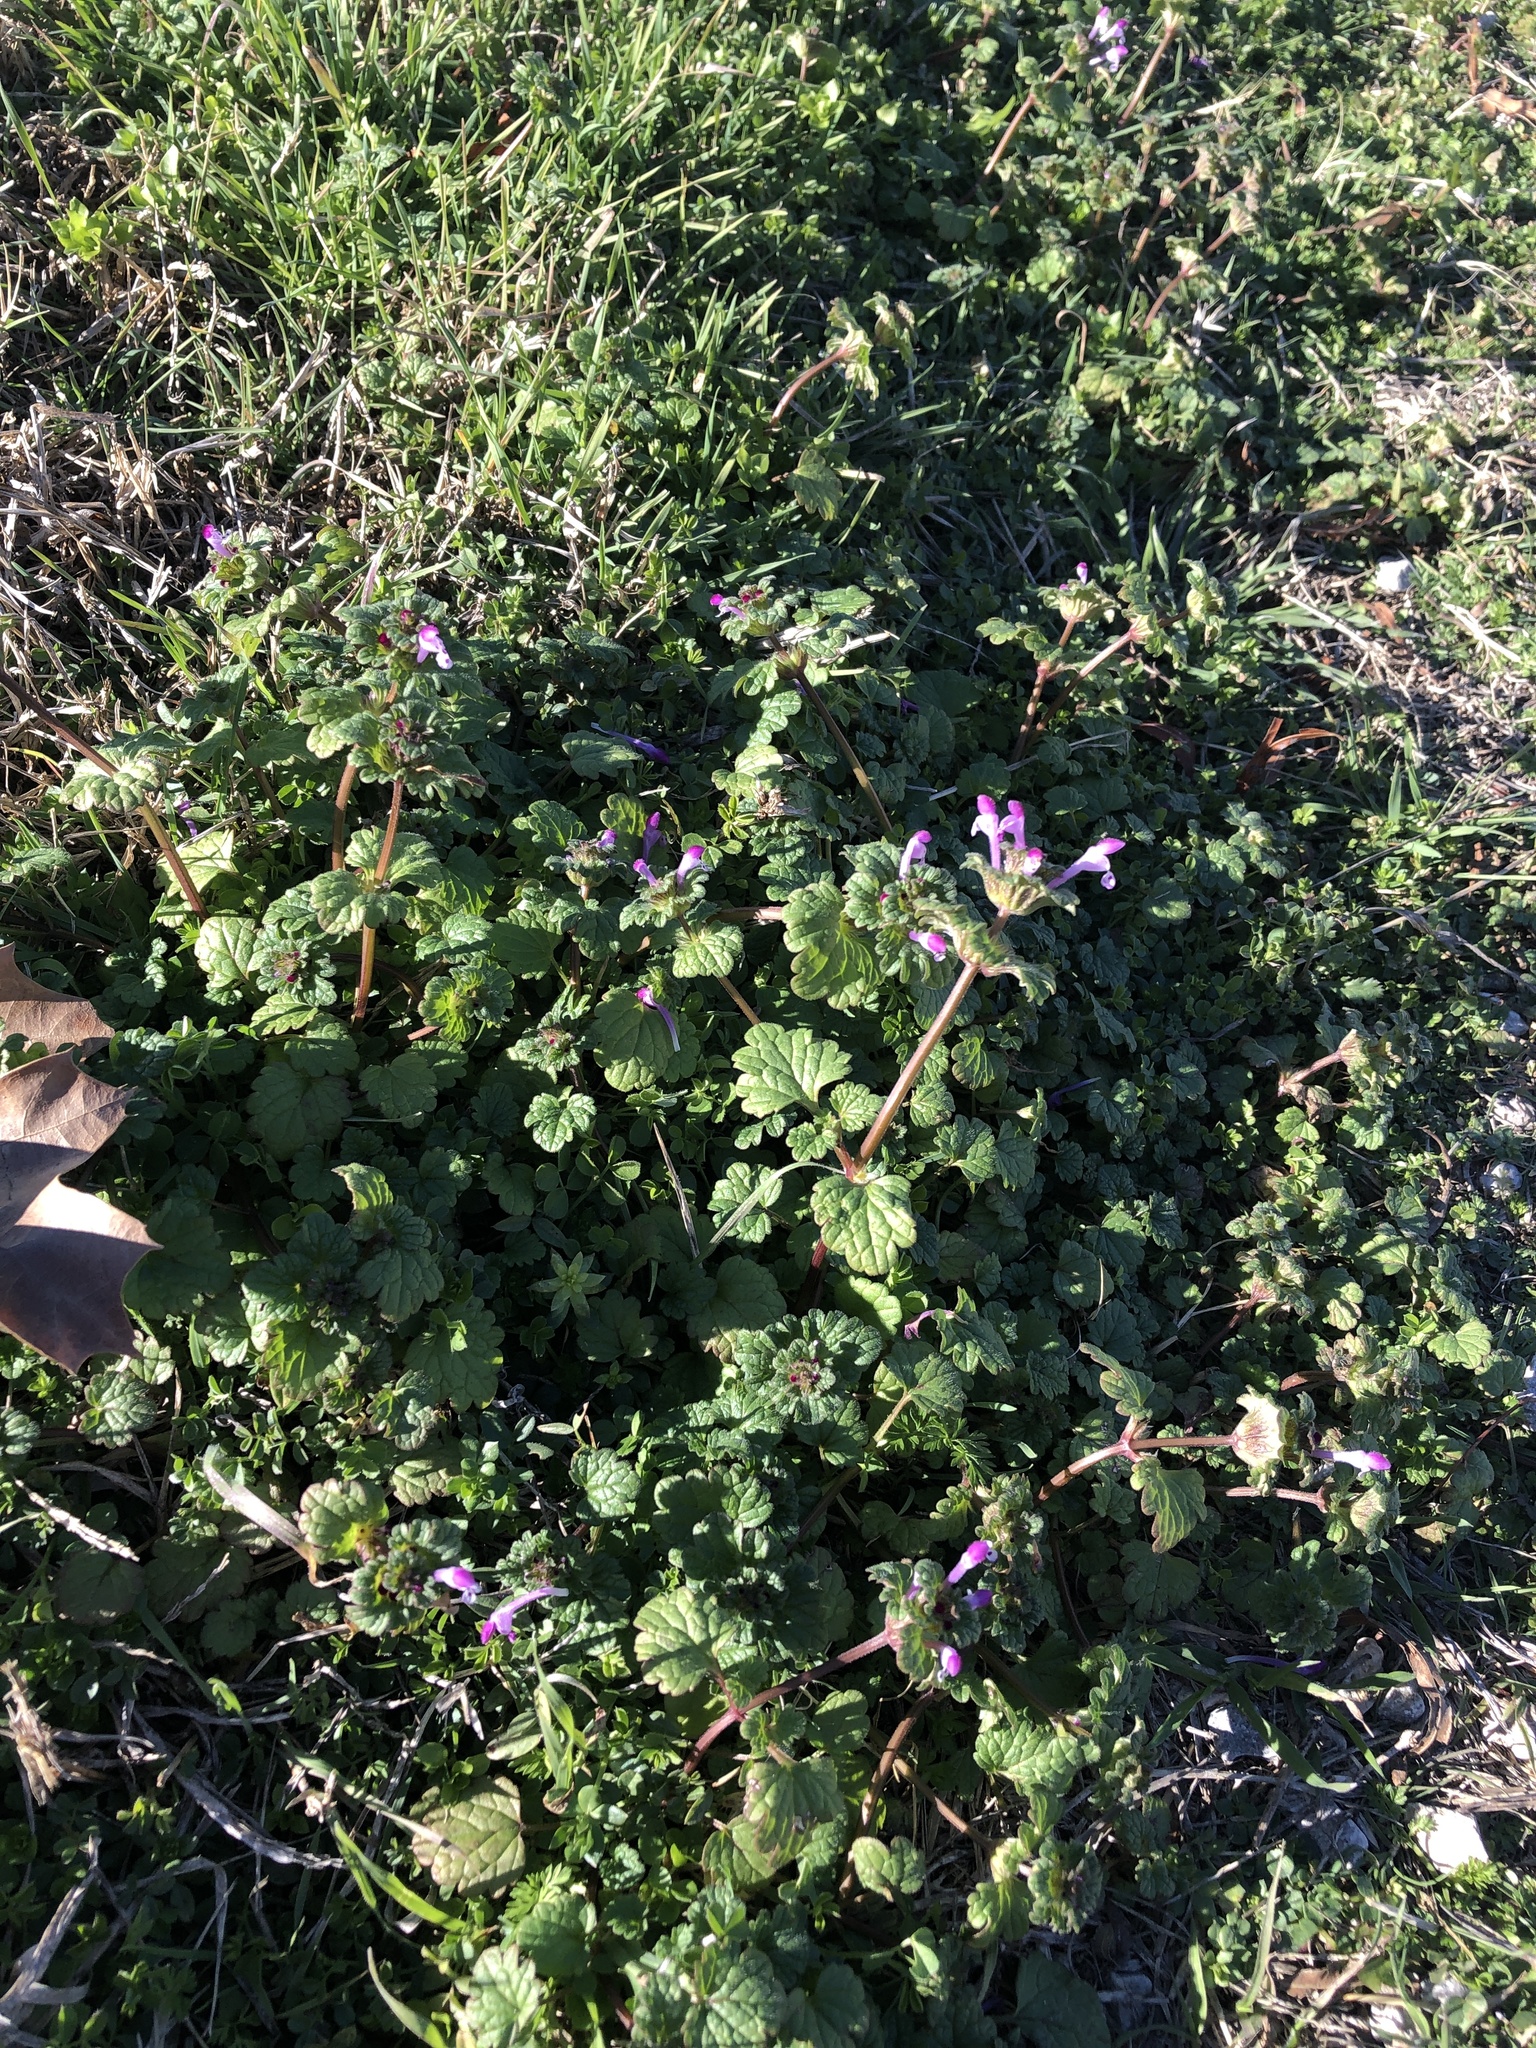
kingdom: Plantae
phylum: Tracheophyta
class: Magnoliopsida
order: Lamiales
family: Lamiaceae
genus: Lamium
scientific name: Lamium amplexicaule
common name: Henbit dead-nettle
